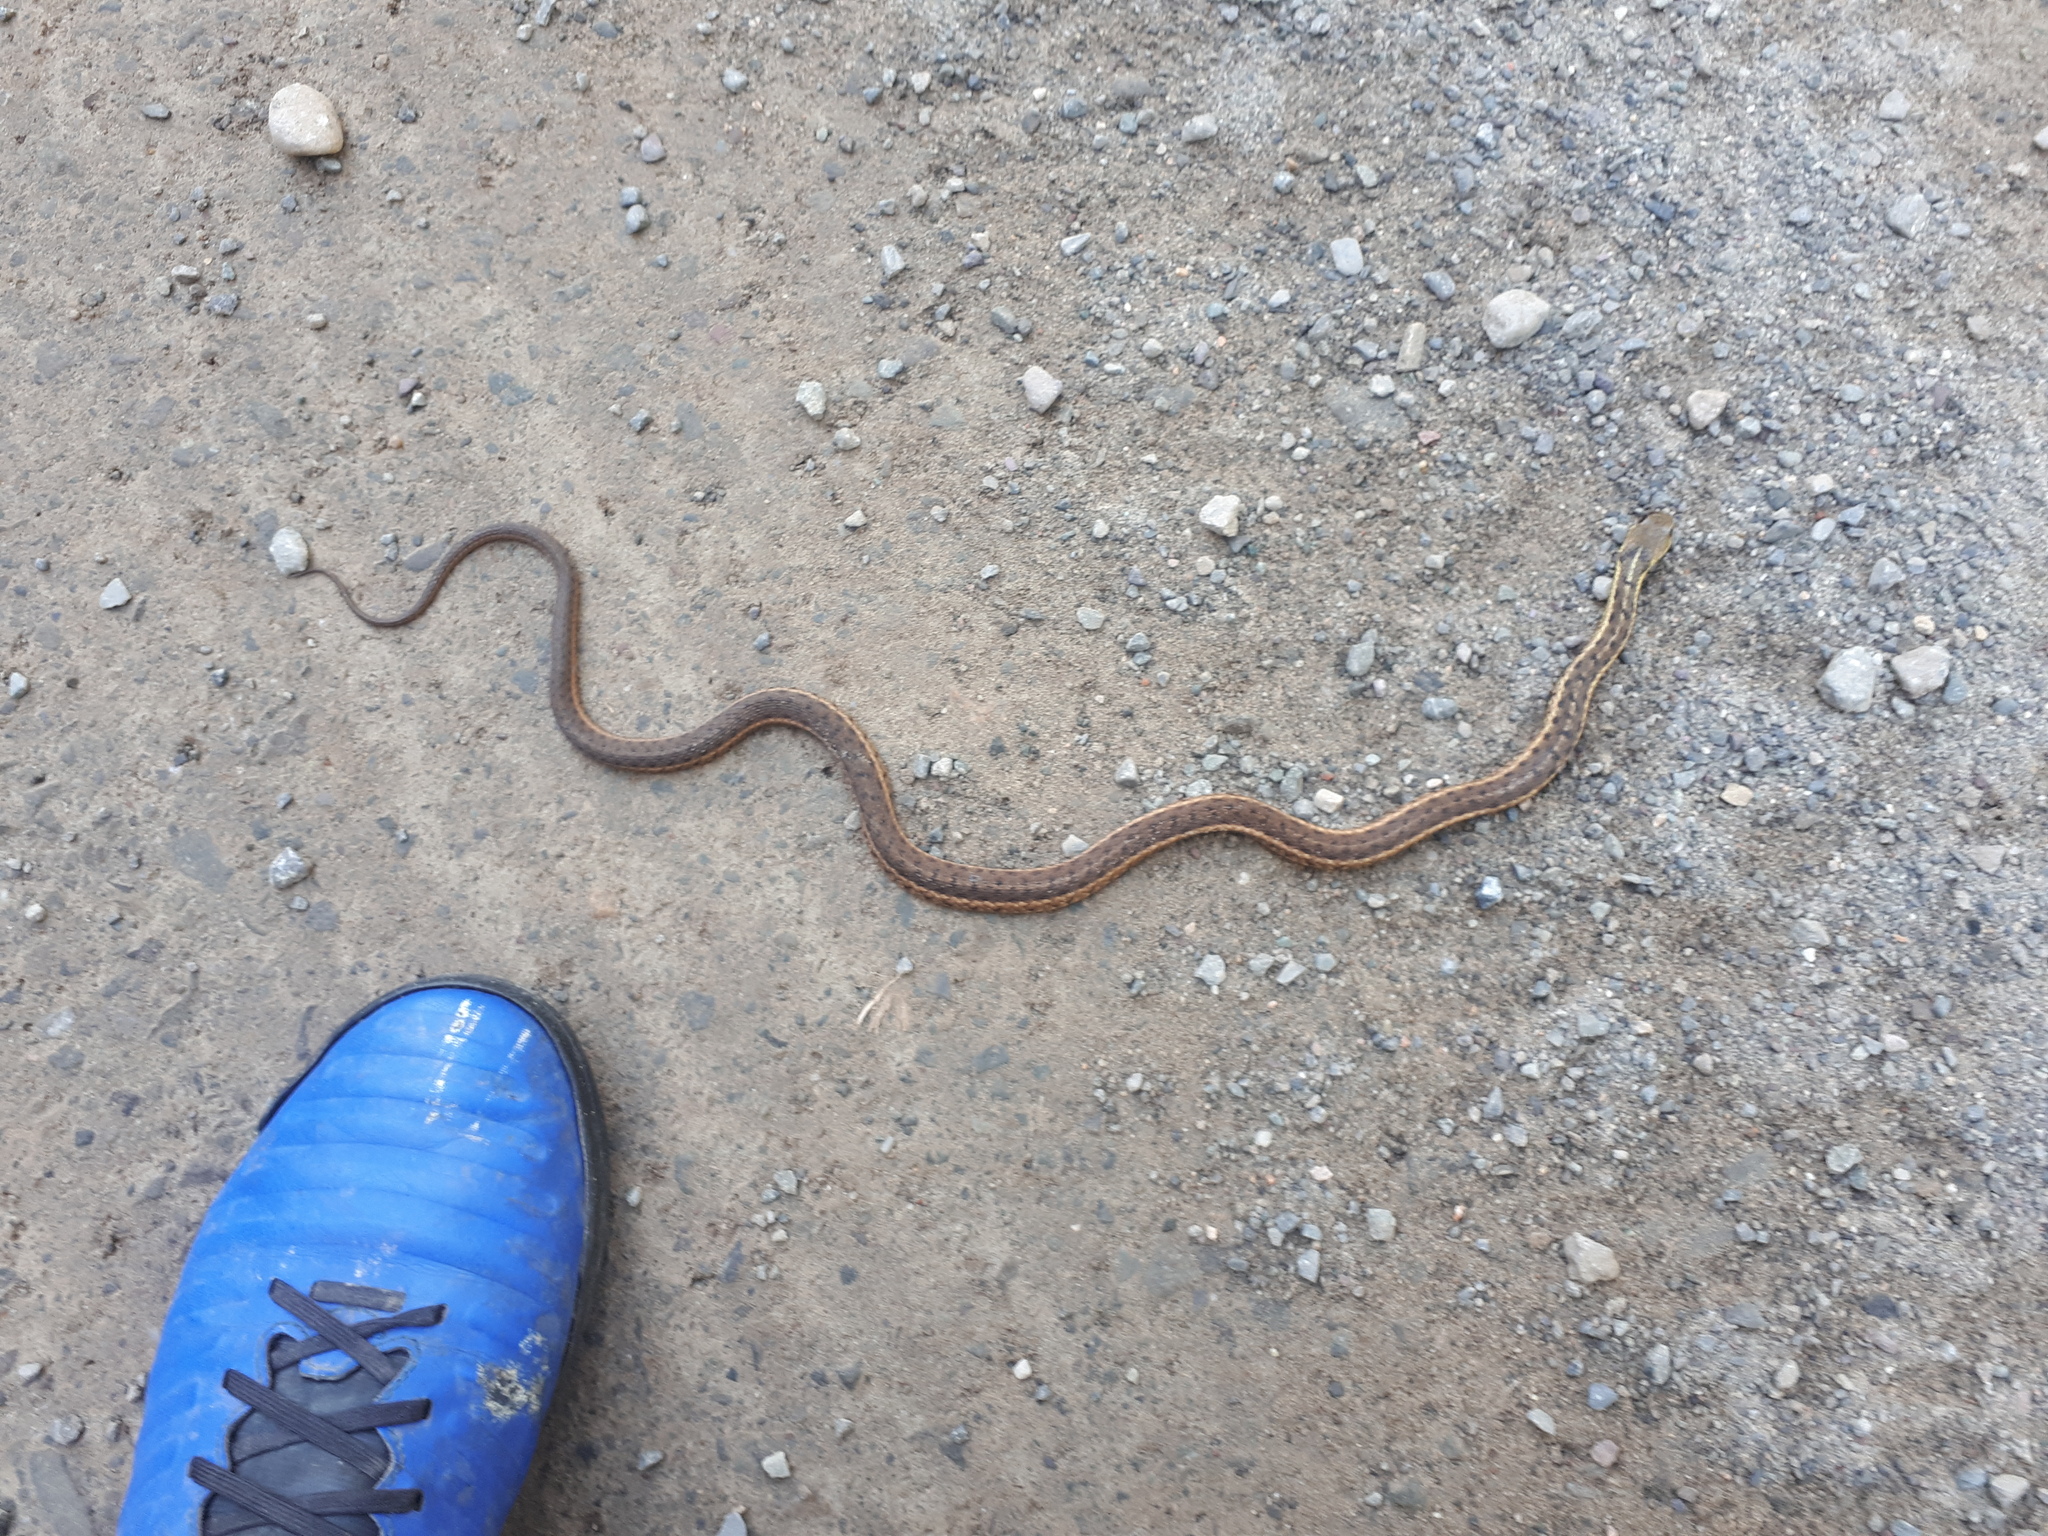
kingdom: Animalia
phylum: Chordata
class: Squamata
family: Colubridae
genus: Thamnophis
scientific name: Thamnophis sirtalis
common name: Common garter snake
